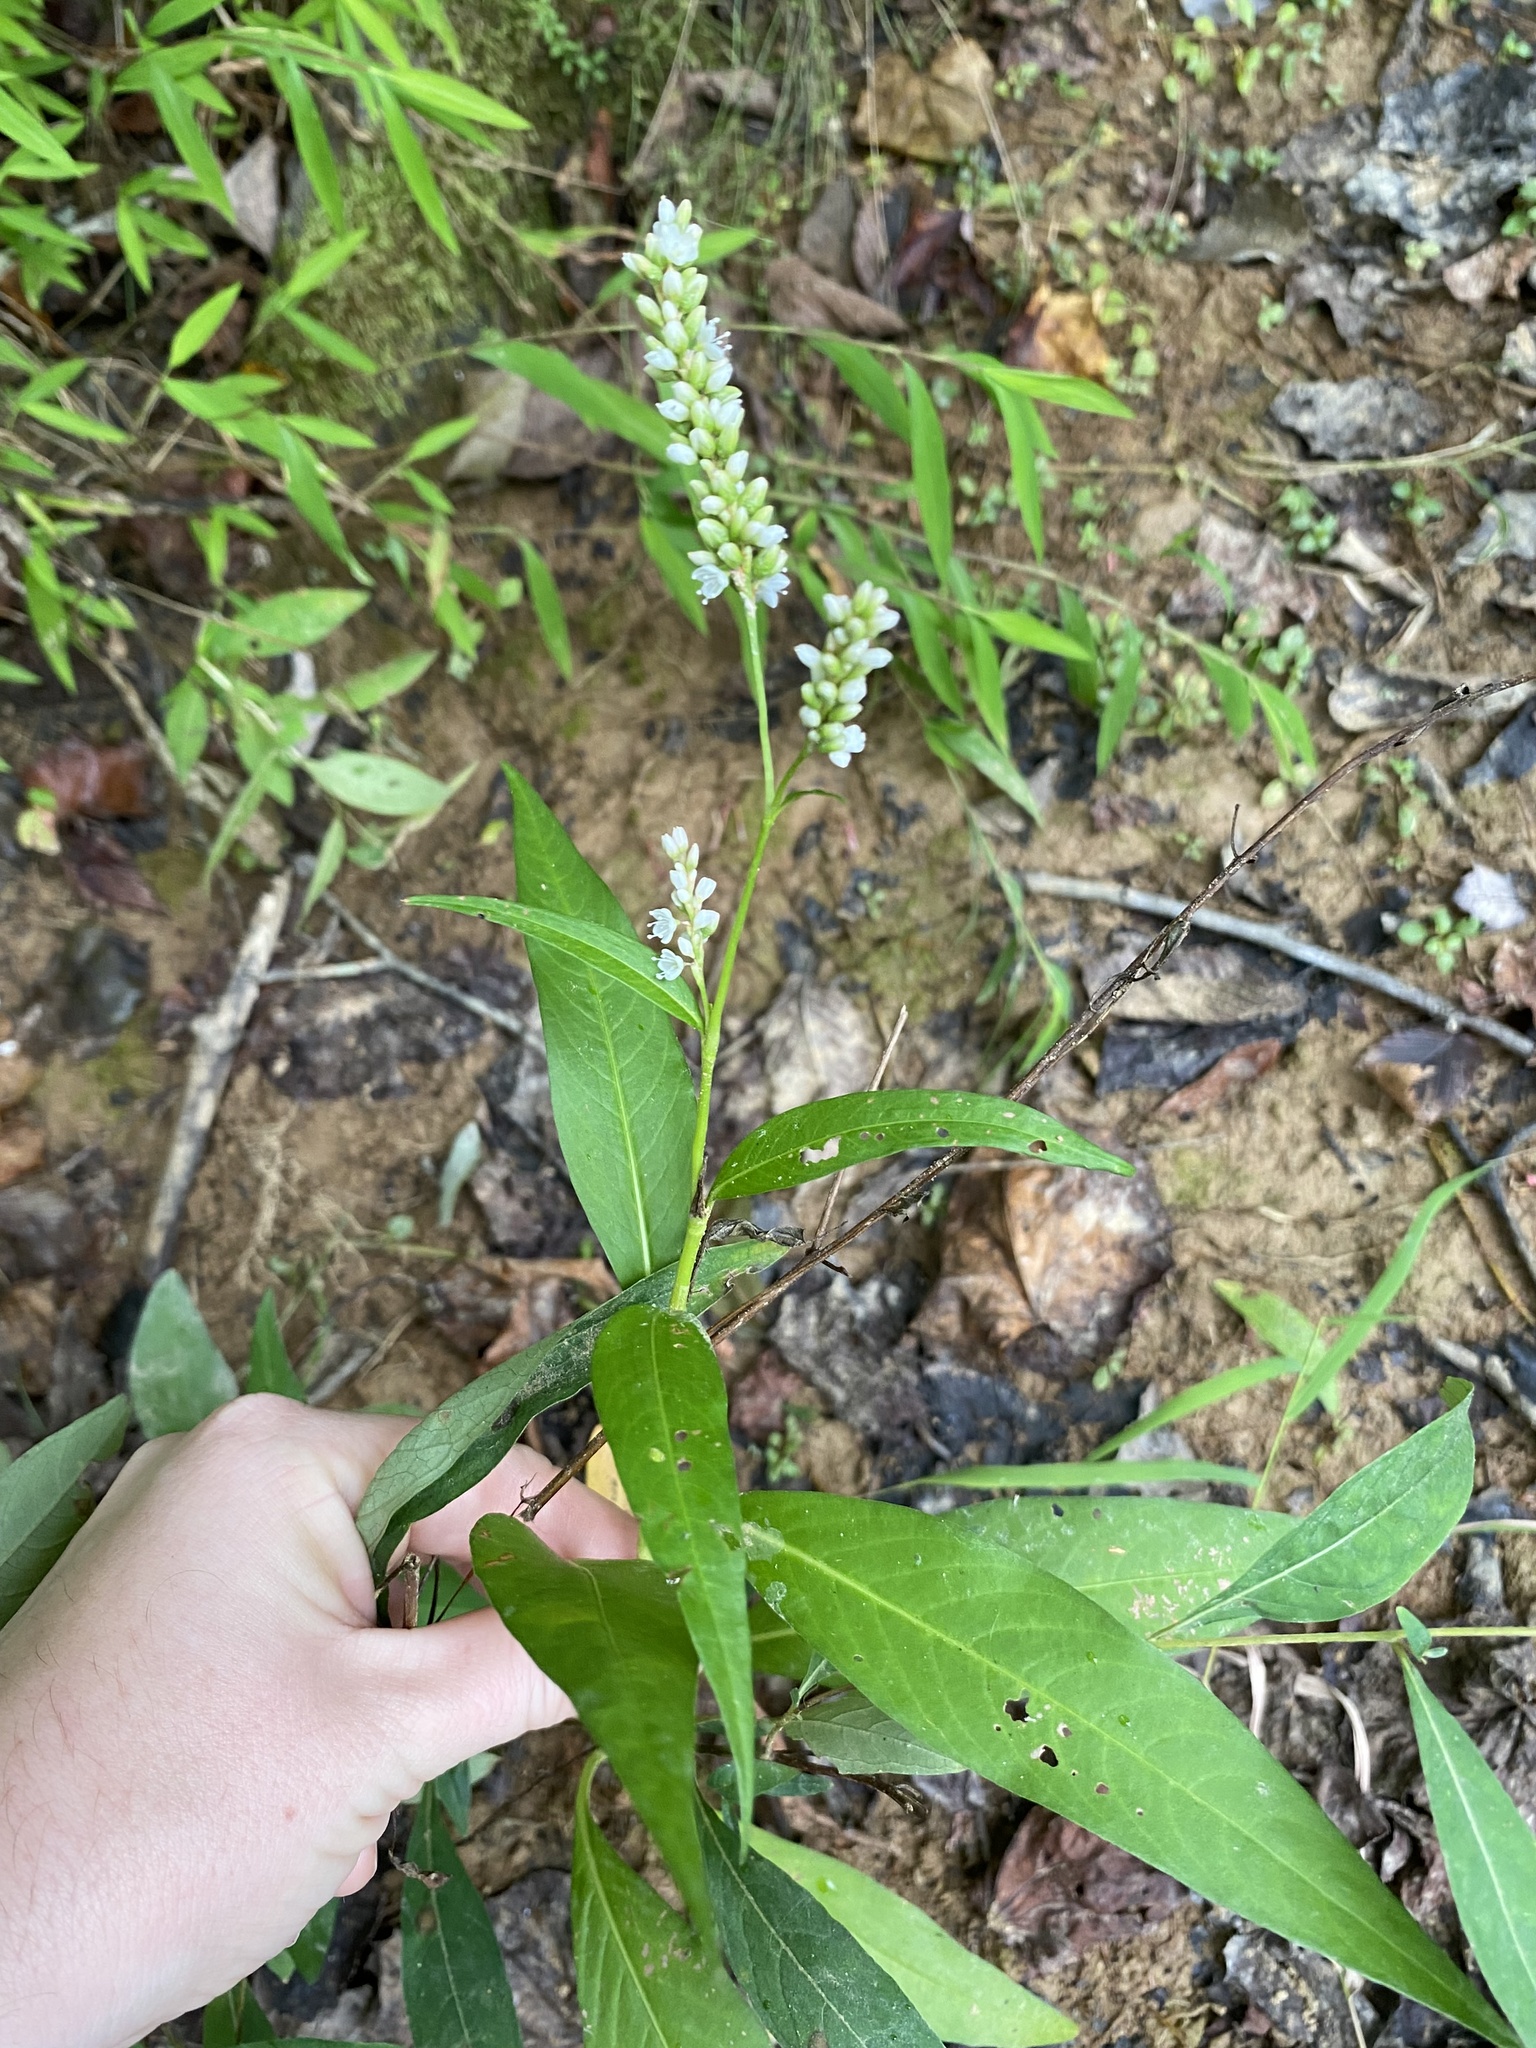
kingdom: Plantae
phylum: Tracheophyta
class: Magnoliopsida
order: Caryophyllales
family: Polygonaceae
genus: Persicaria
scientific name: Persicaria hydropiperoides
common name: Swamp smartweed
